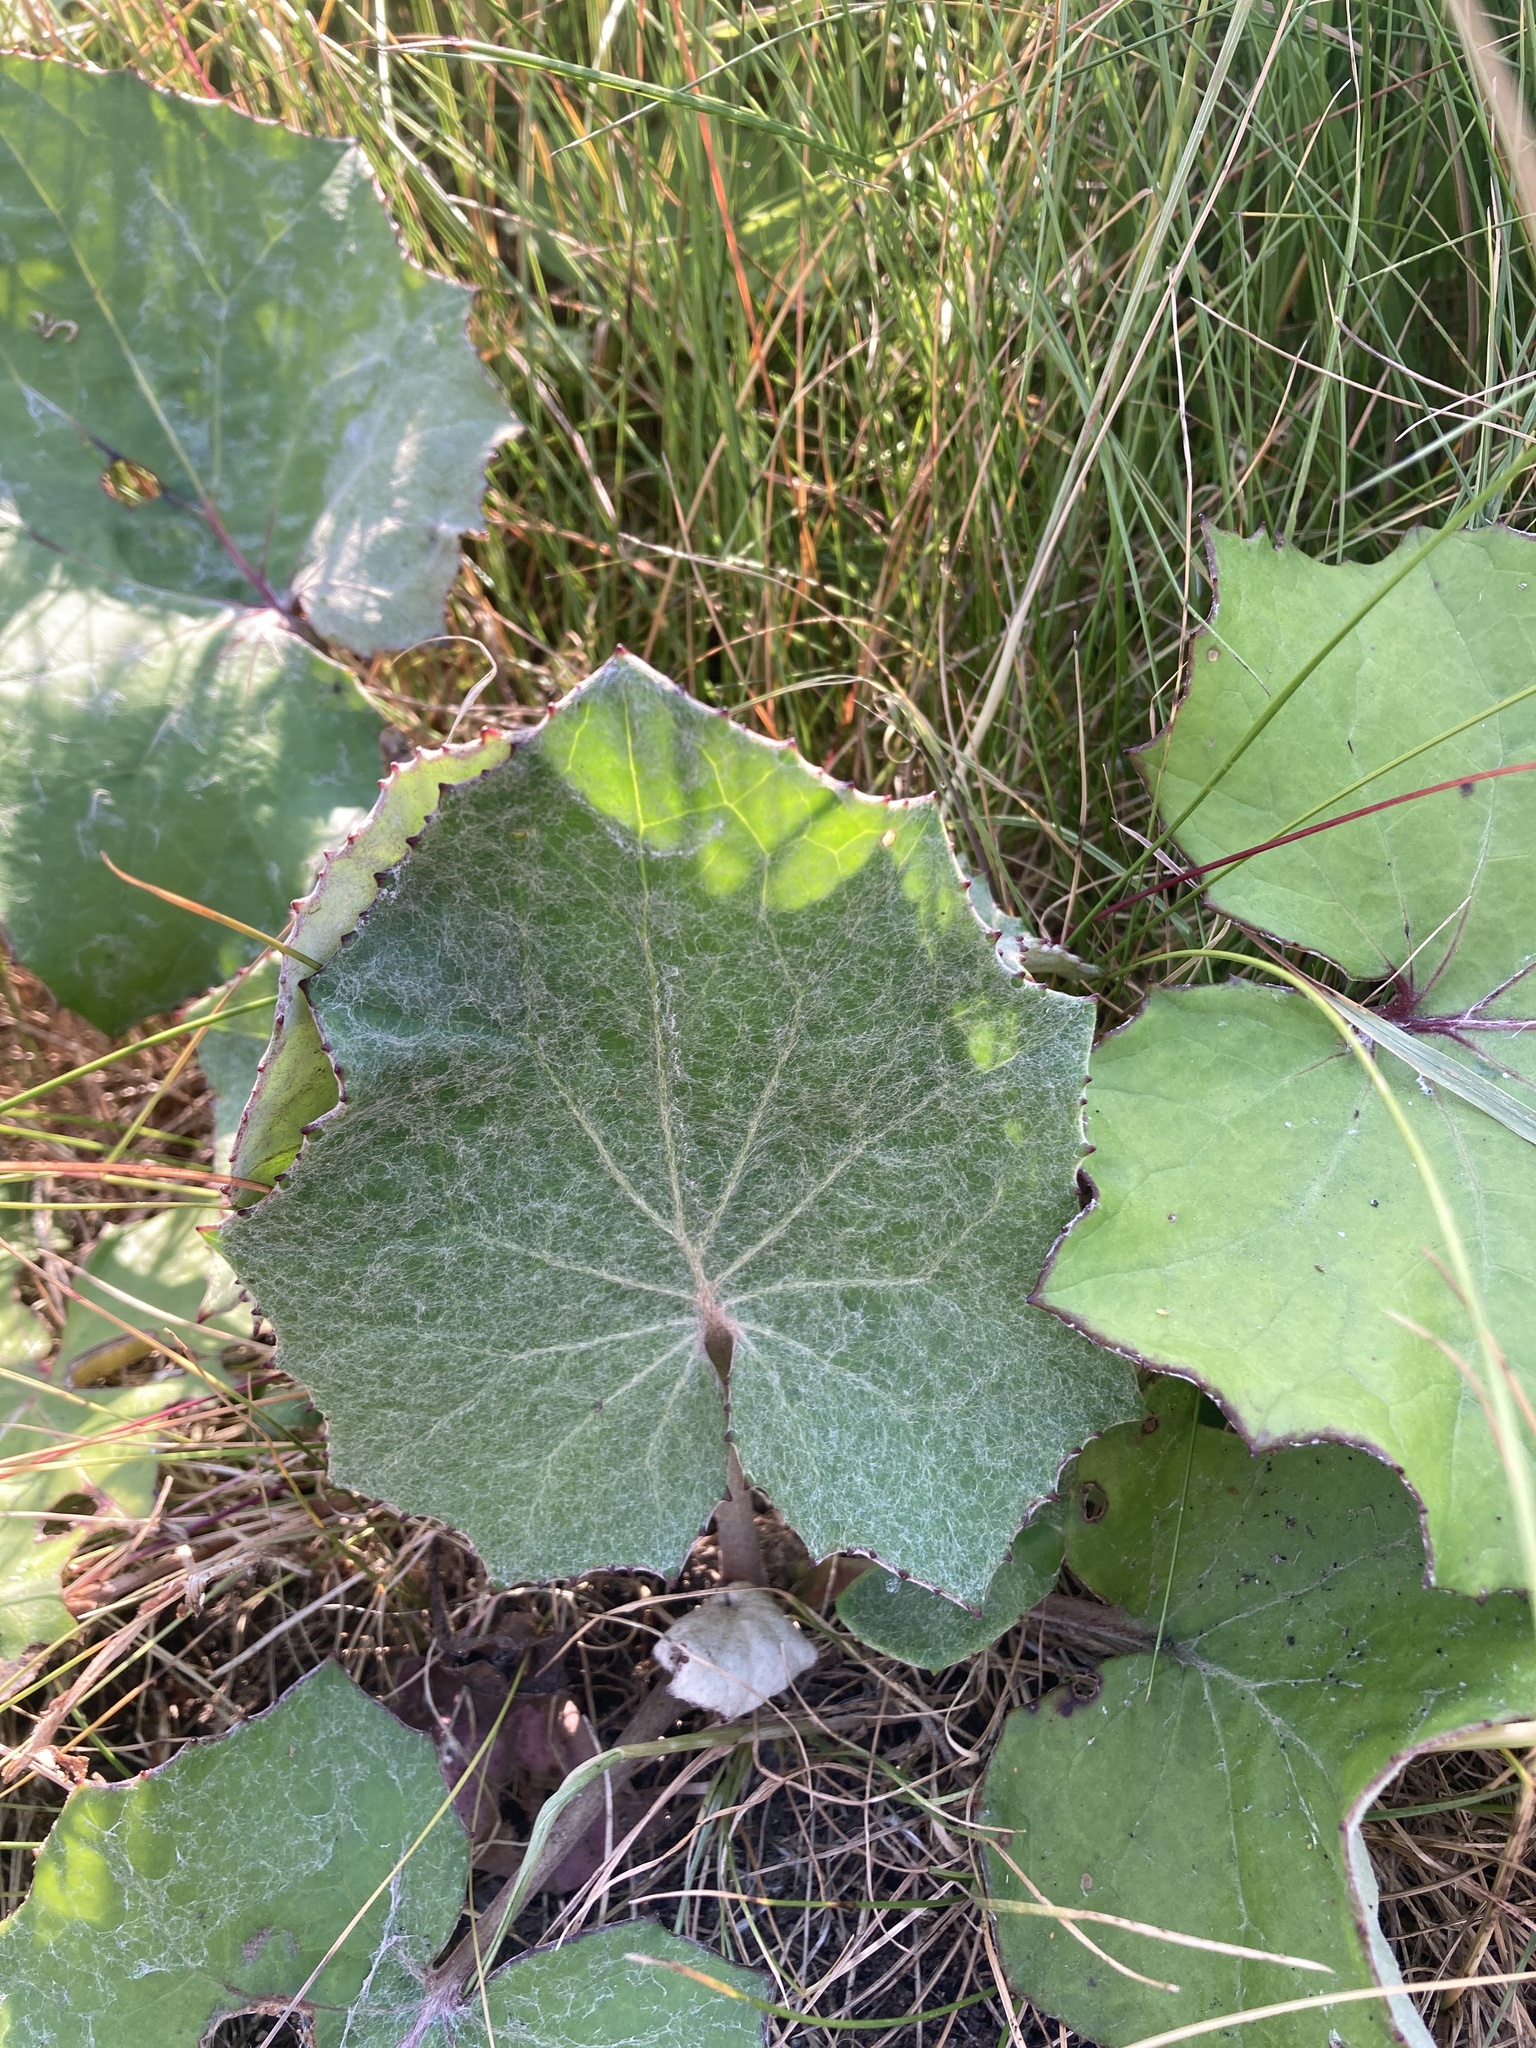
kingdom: Plantae
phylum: Tracheophyta
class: Magnoliopsida
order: Asterales
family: Asteraceae
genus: Tussilago
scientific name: Tussilago farfara
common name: Coltsfoot
